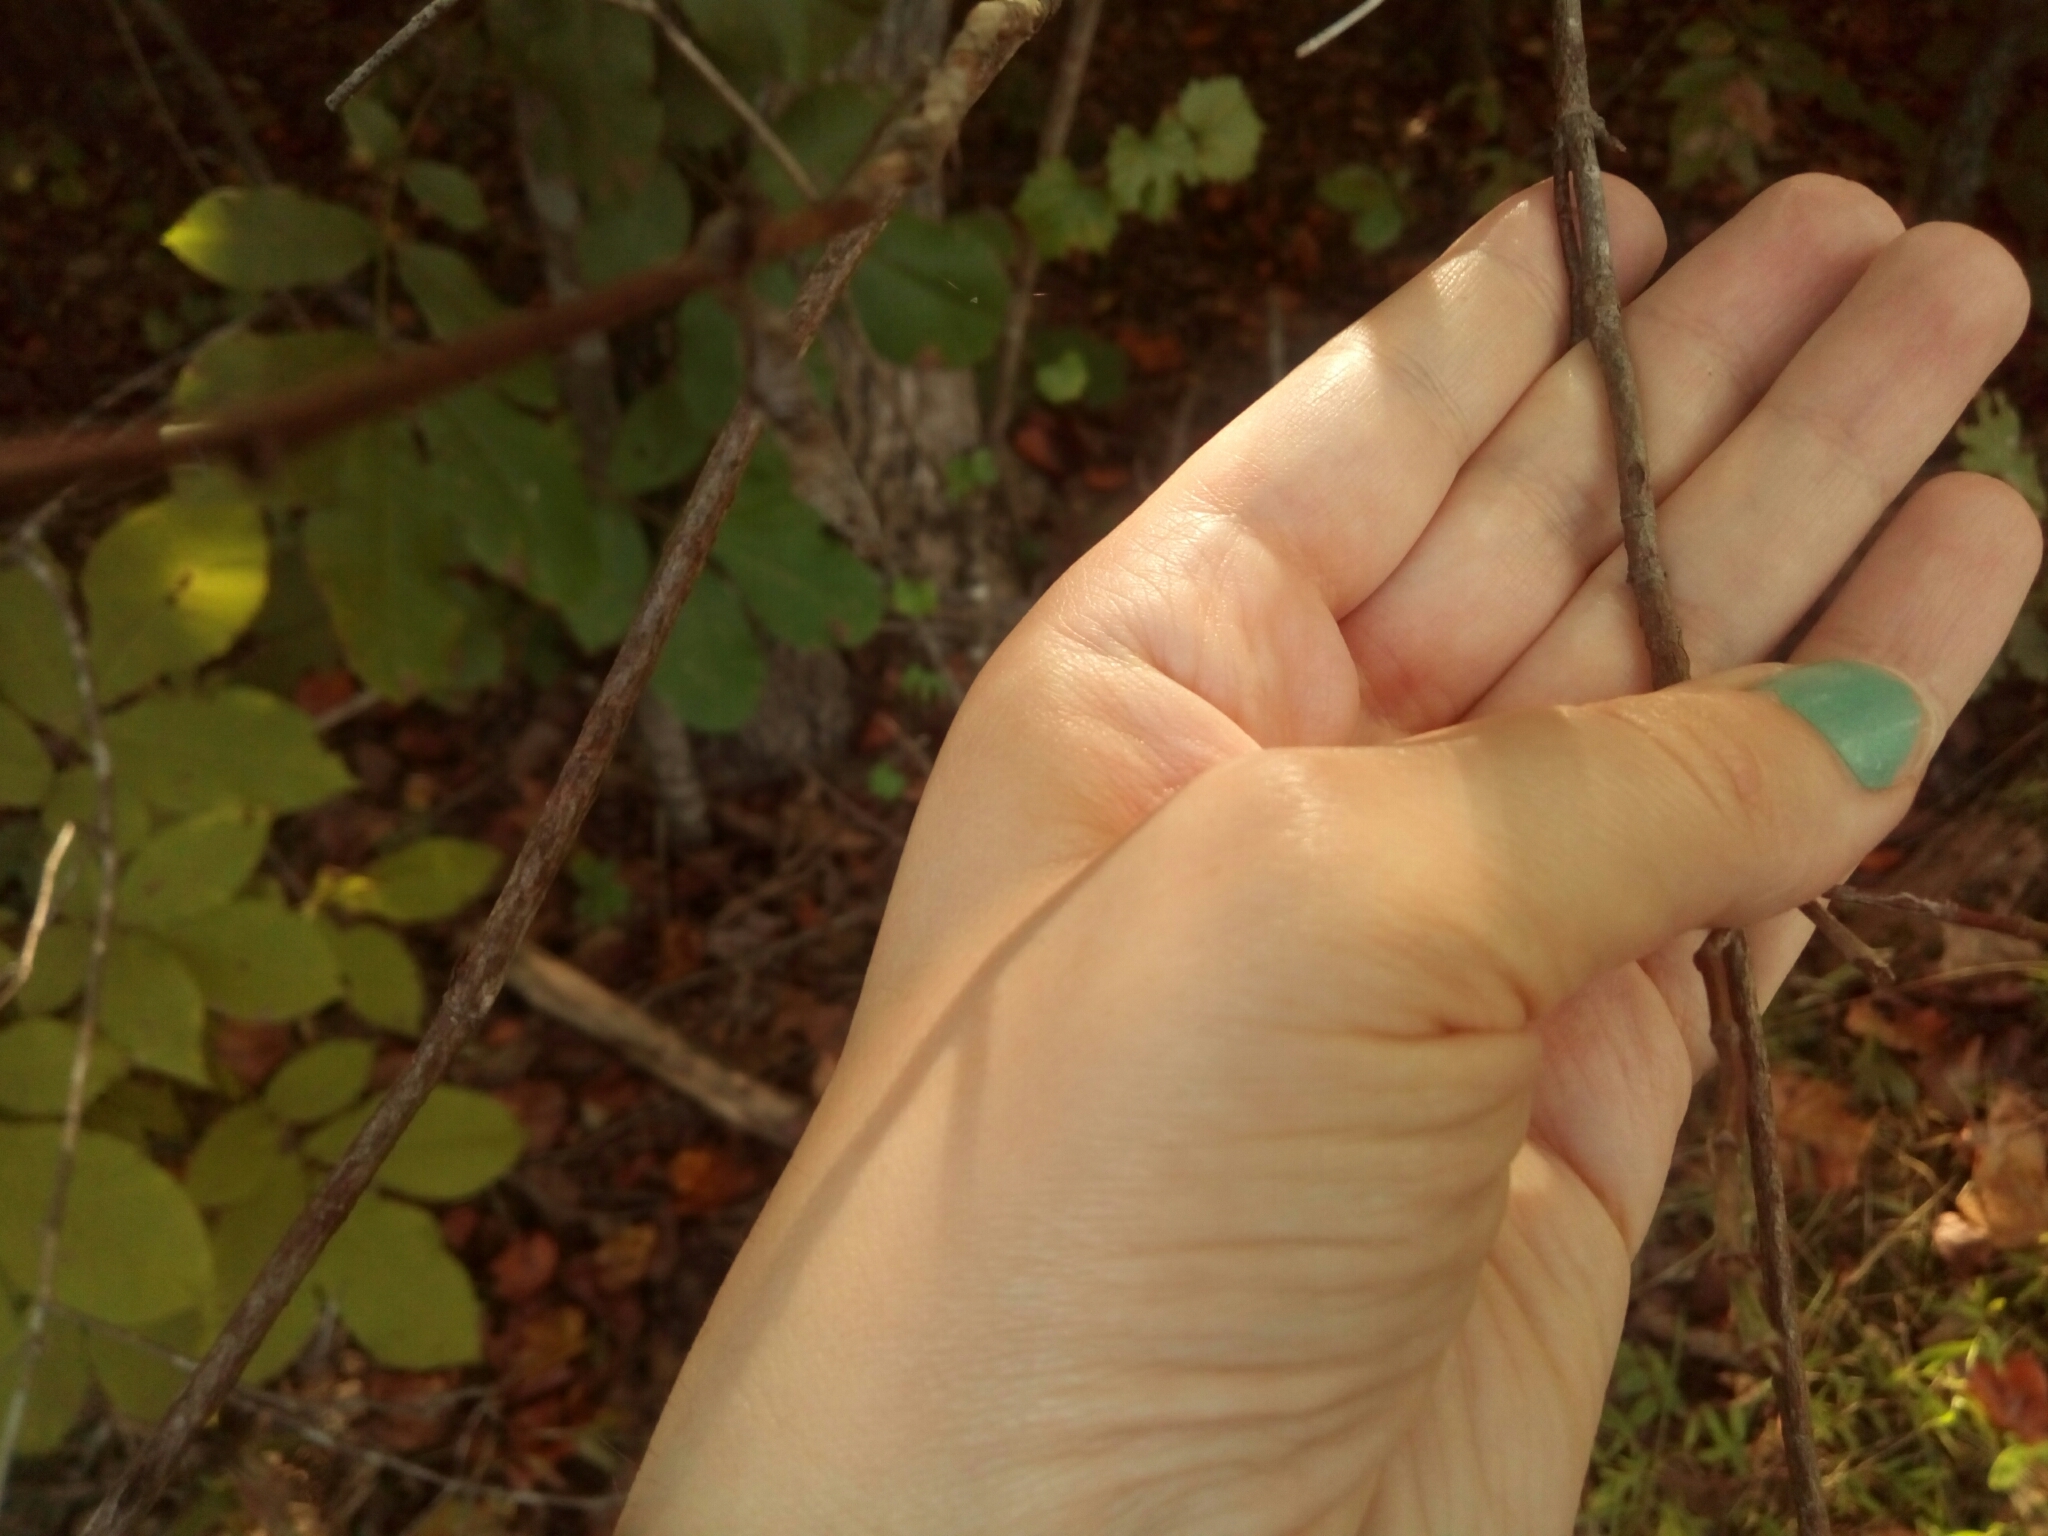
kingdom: Plantae
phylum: Tracheophyta
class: Magnoliopsida
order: Cornales
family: Cornaceae
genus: Cornus
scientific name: Cornus florida
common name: Flowering dogwood
